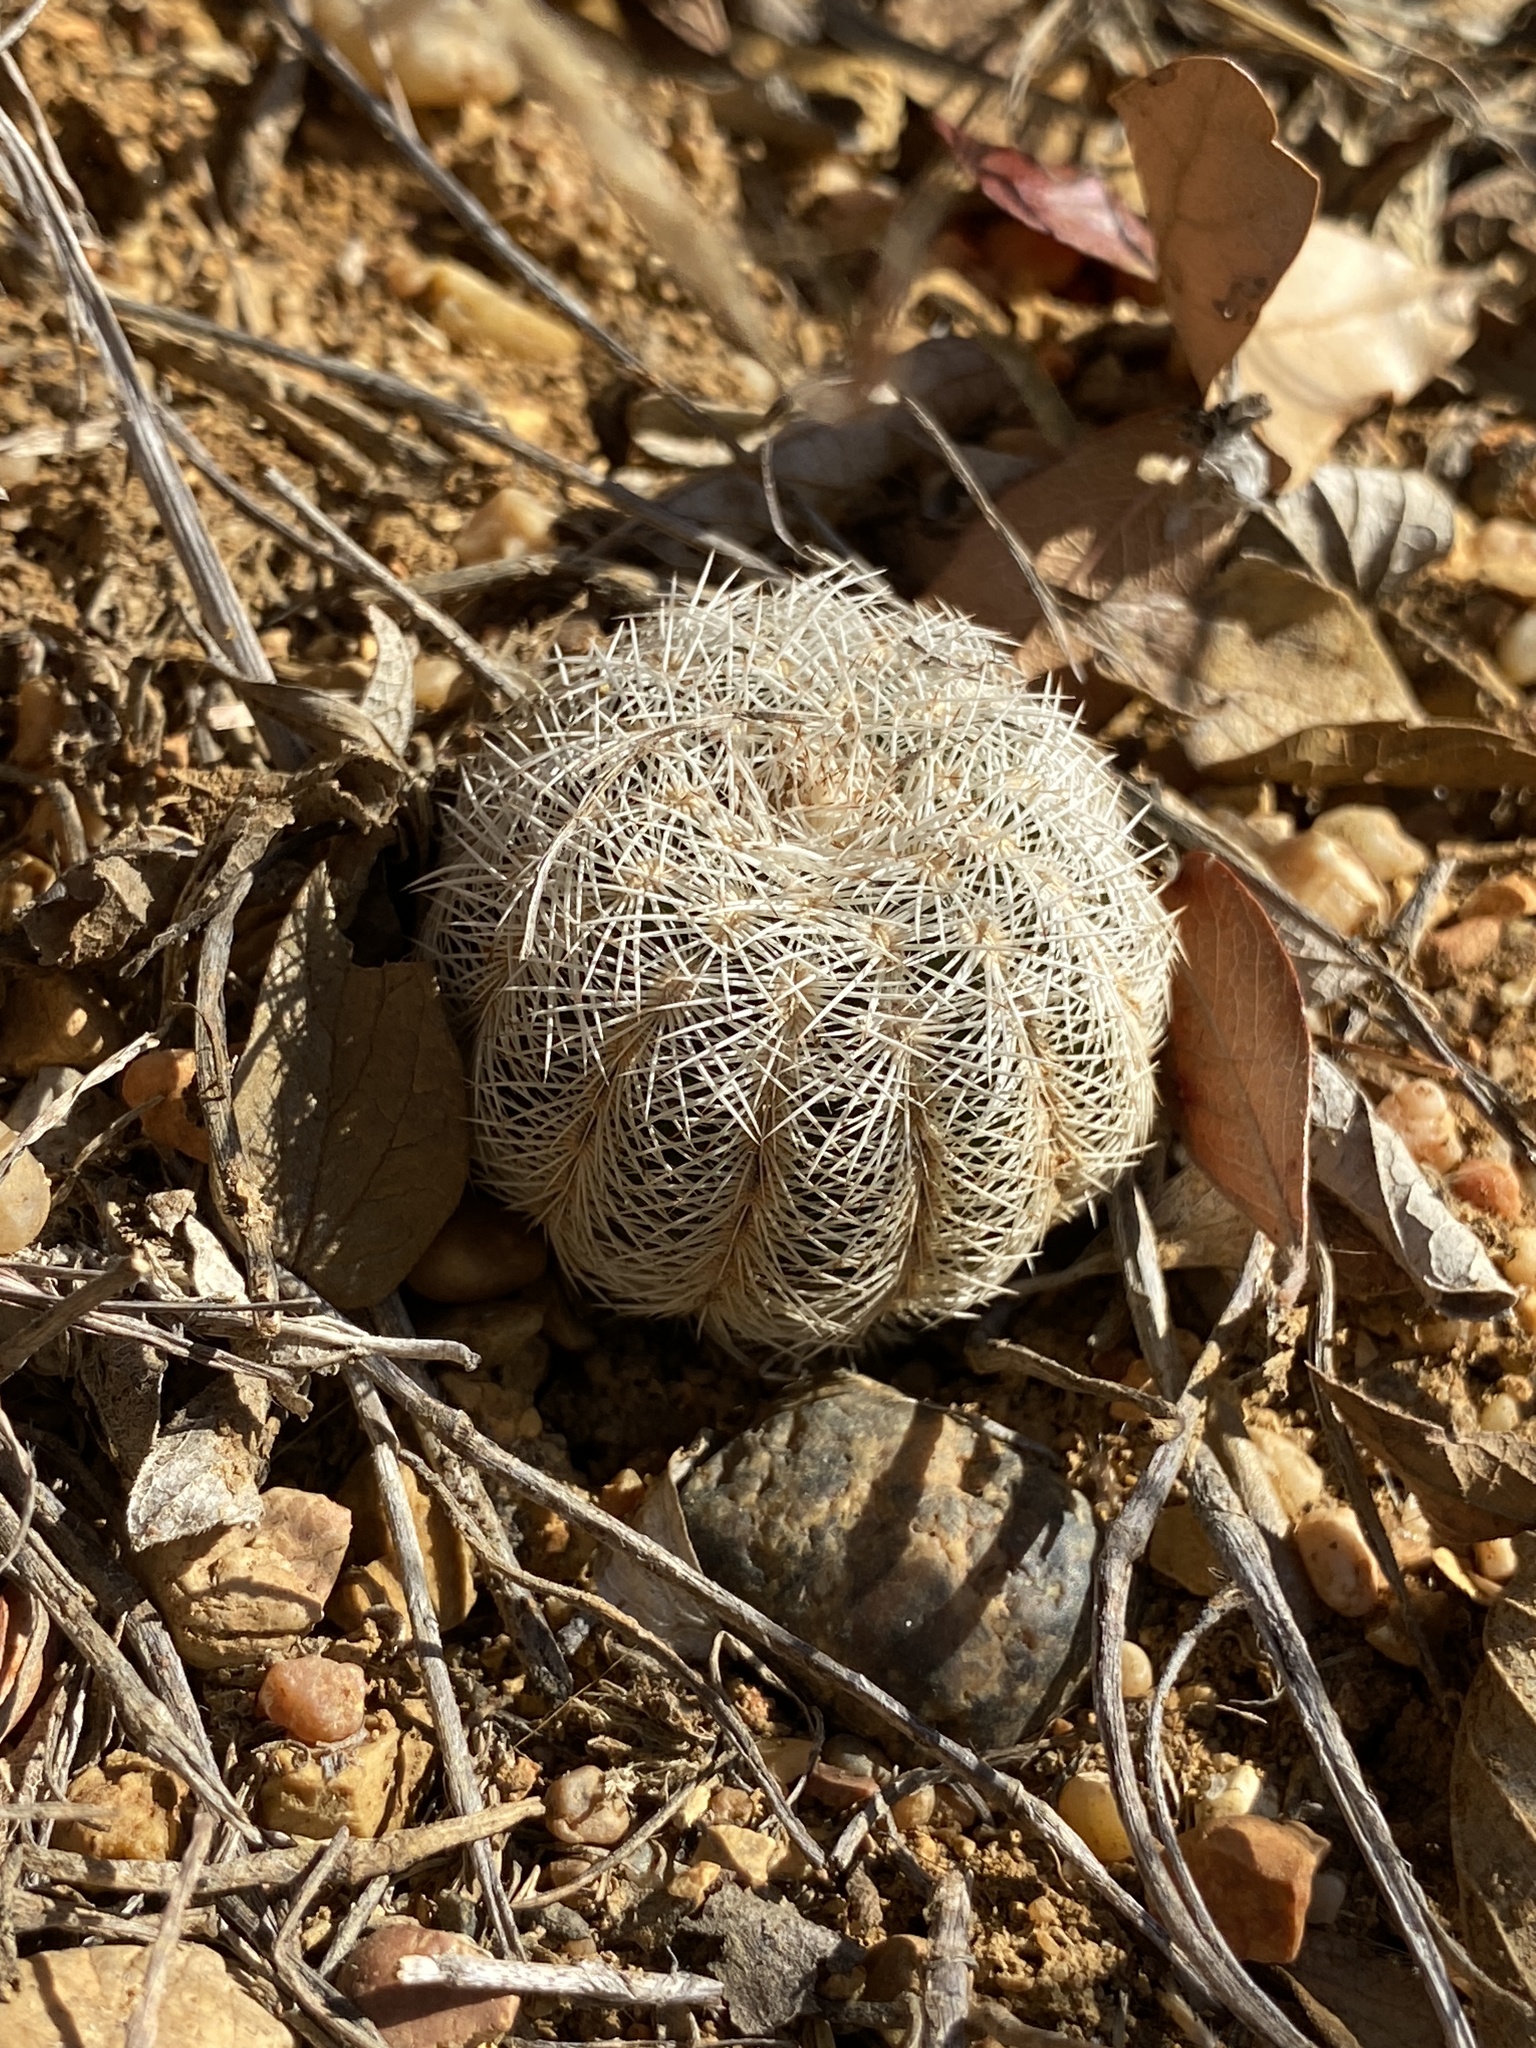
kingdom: Plantae
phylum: Tracheophyta
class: Magnoliopsida
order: Caryophyllales
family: Cactaceae
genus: Echinocereus
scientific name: Echinocereus reichenbachii
